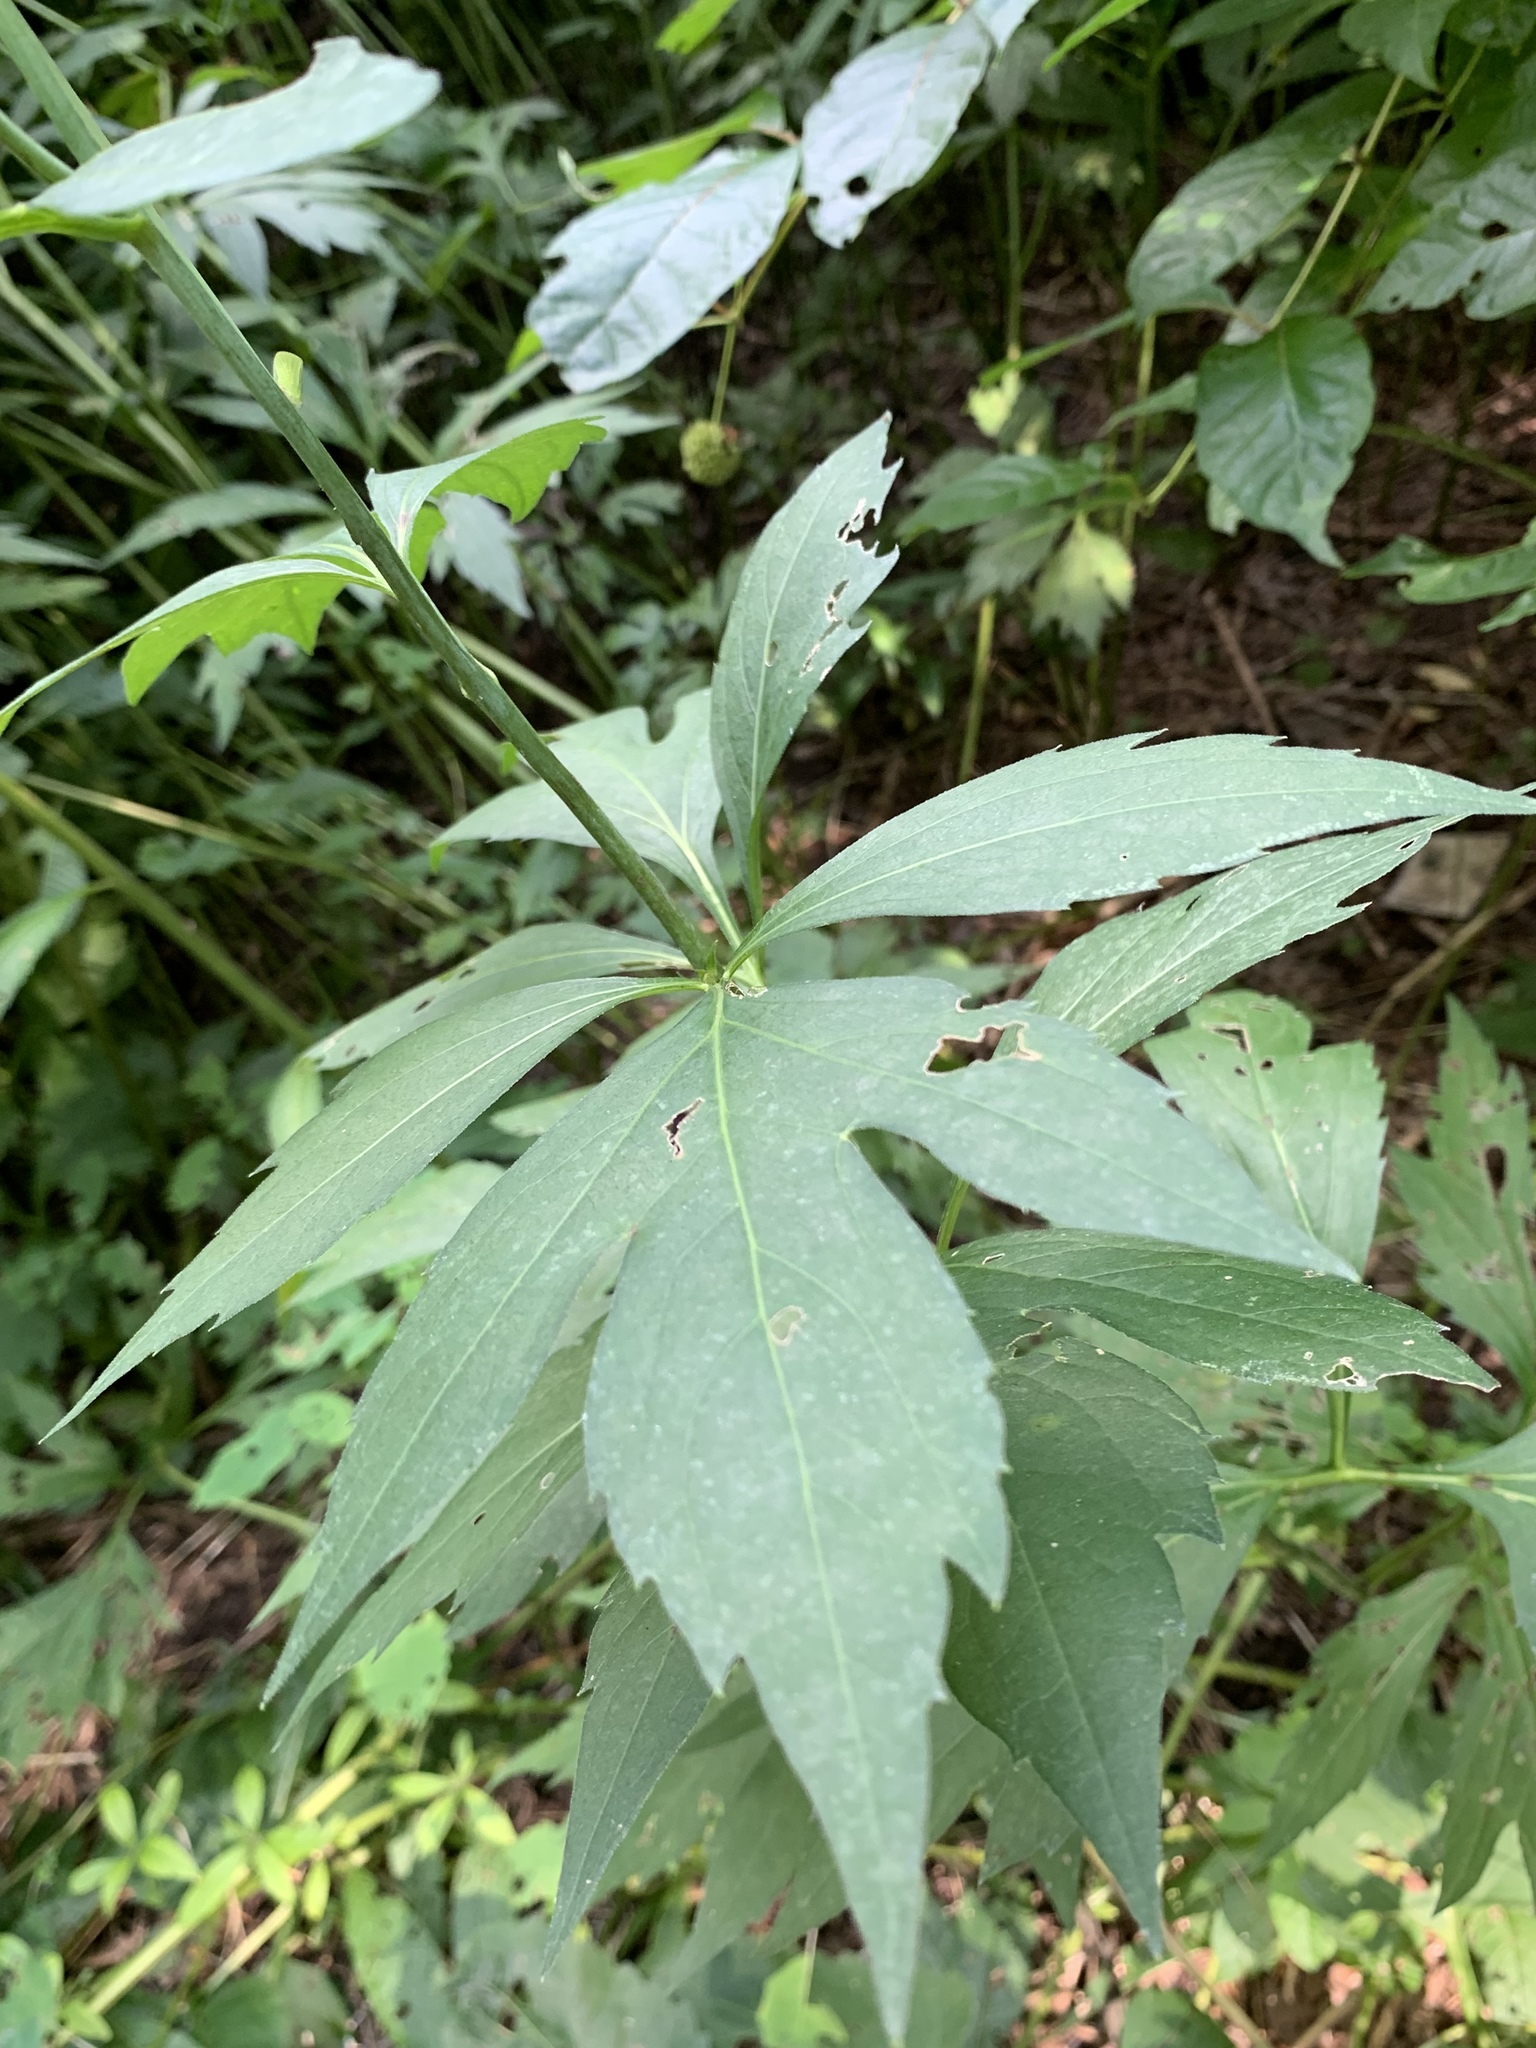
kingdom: Plantae
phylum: Tracheophyta
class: Magnoliopsida
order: Asterales
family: Asteraceae
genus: Rudbeckia
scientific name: Rudbeckia laciniata
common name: Coneflower
